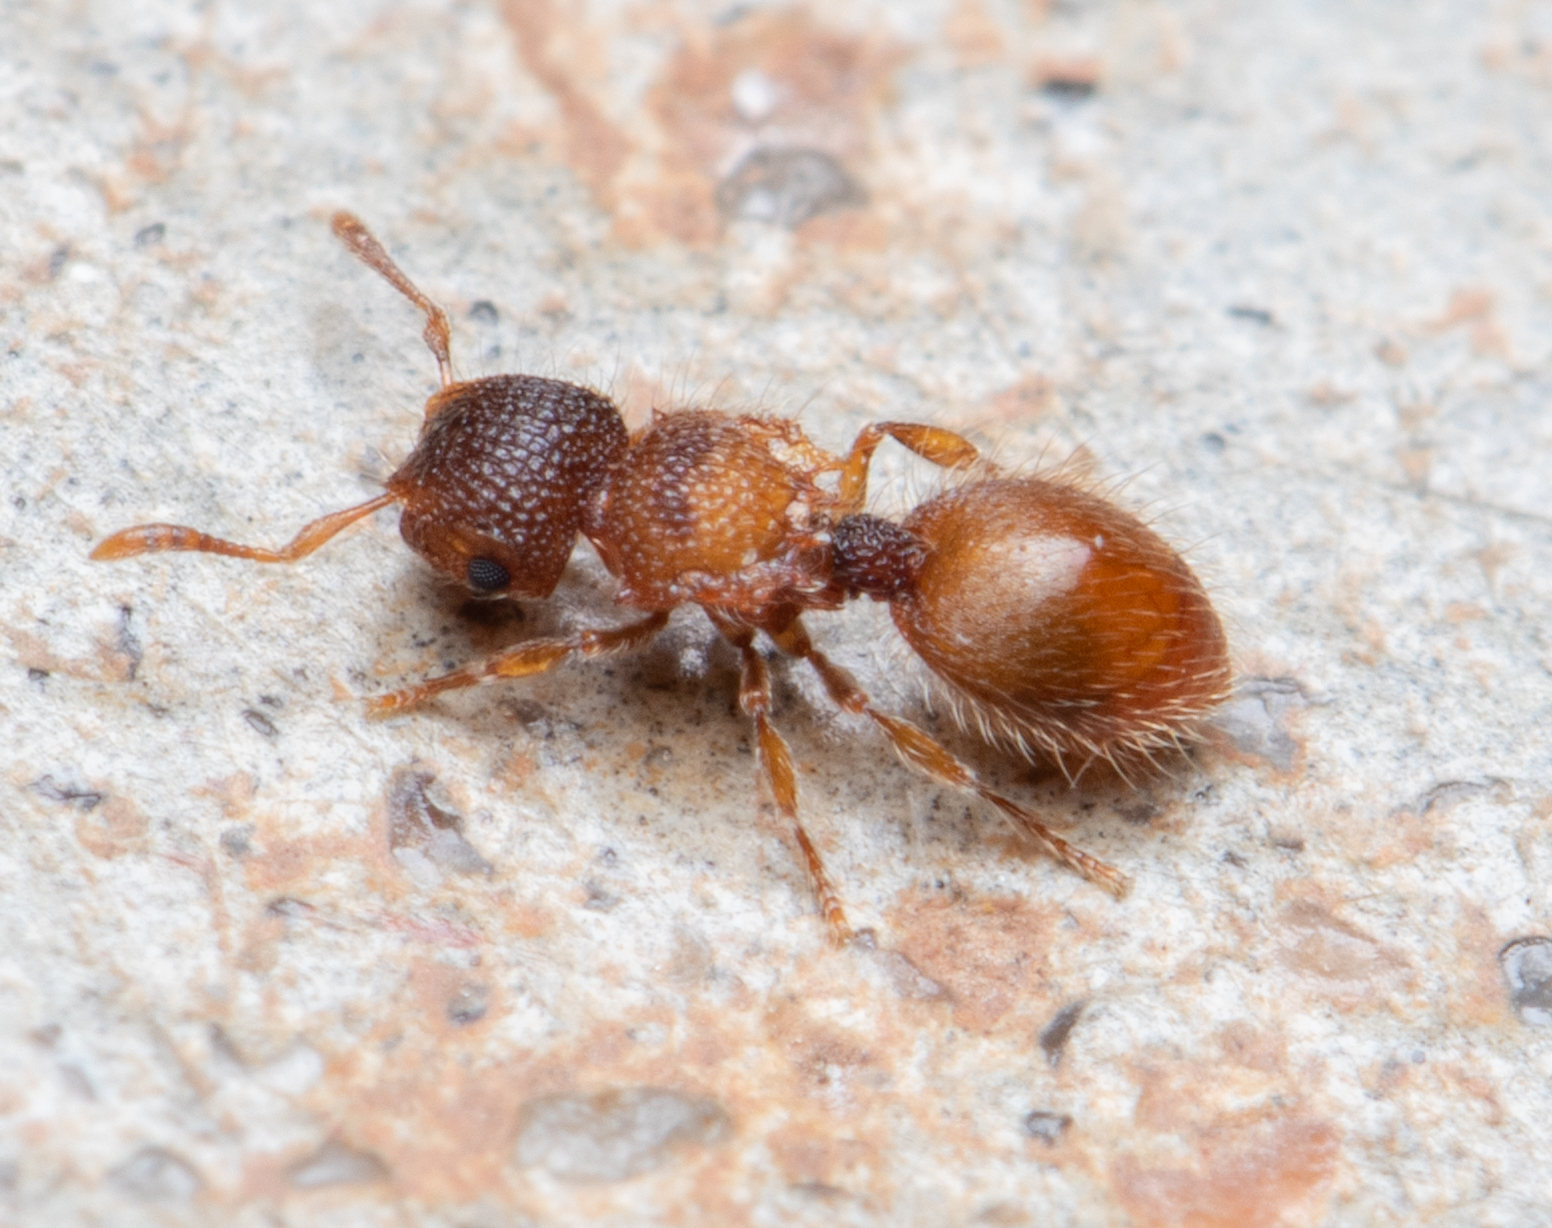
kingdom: Animalia
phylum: Arthropoda
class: Insecta
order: Hymenoptera
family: Formicidae
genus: Meranoplus
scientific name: Meranoplus froggatti
